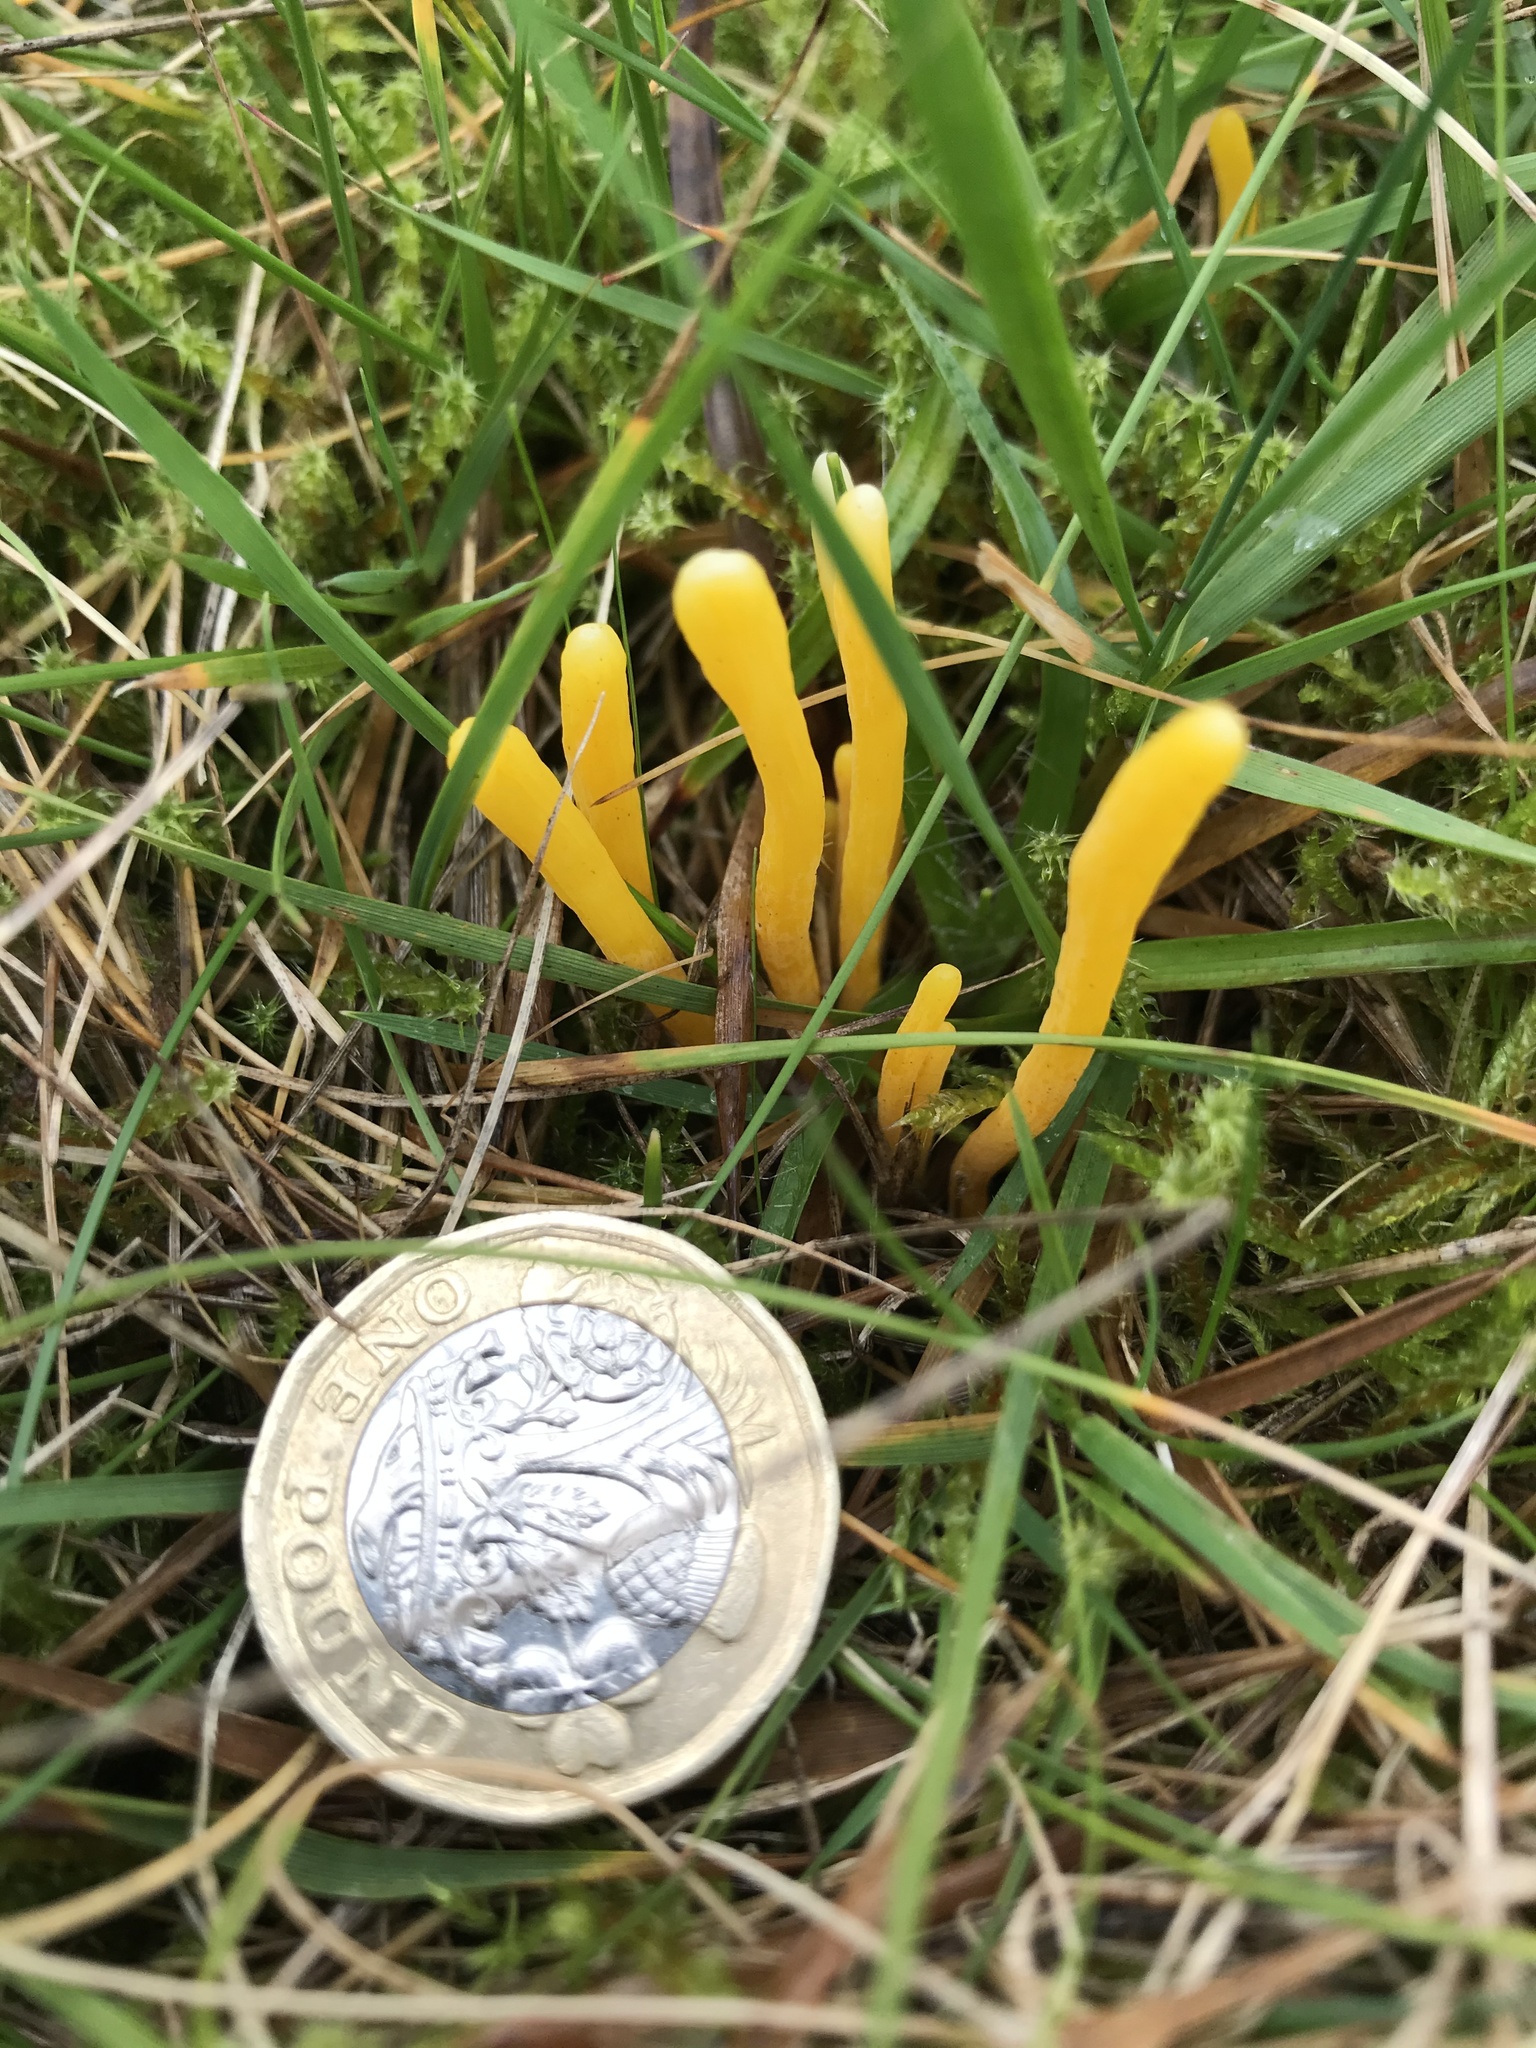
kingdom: Fungi
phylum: Basidiomycota
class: Agaricomycetes
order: Agaricales
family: Clavariaceae
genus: Clavulinopsis
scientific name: Clavulinopsis luteoalba
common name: Apricot club
